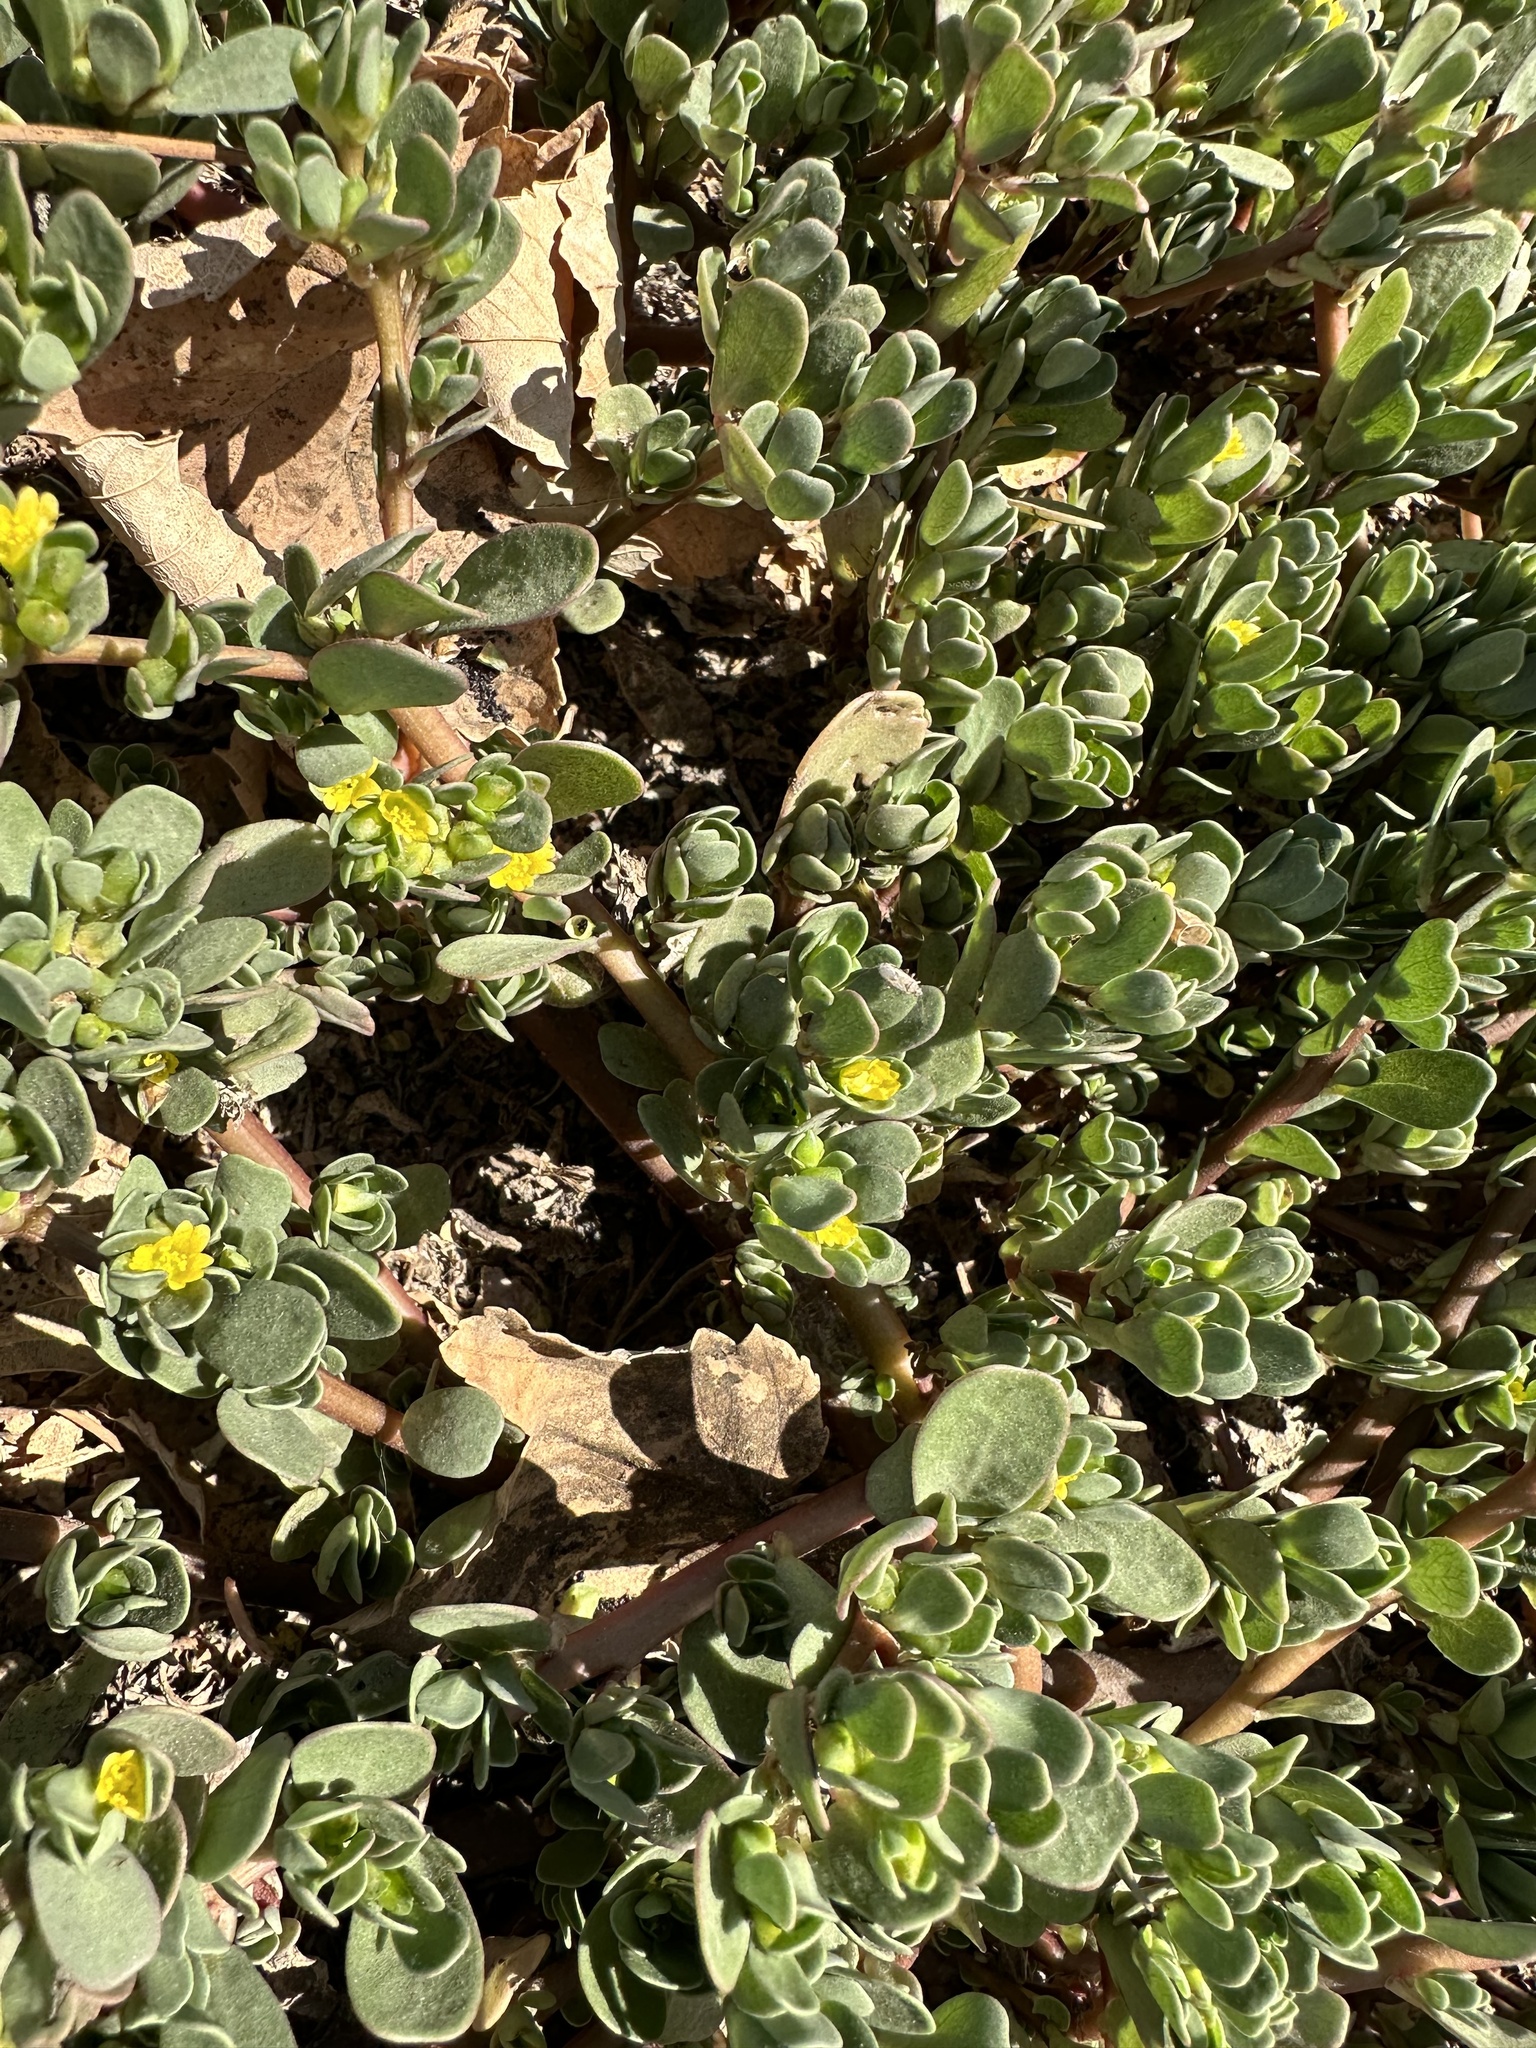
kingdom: Plantae
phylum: Tracheophyta
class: Magnoliopsida
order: Caryophyllales
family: Portulacaceae
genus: Portulaca
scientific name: Portulaca oleracea
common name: Common purslane
